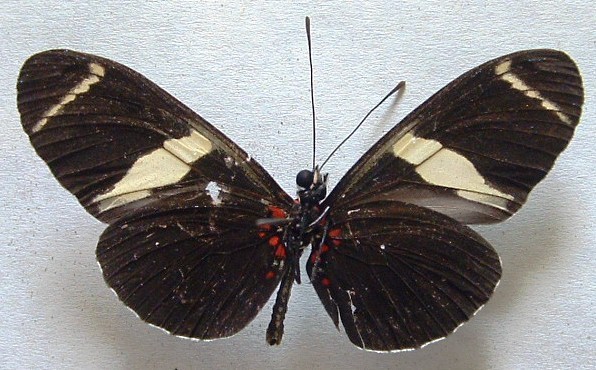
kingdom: Animalia
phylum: Arthropoda
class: Insecta
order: Lepidoptera
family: Nymphalidae
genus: Heliconius
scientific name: Heliconius sara
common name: Sara longwing
